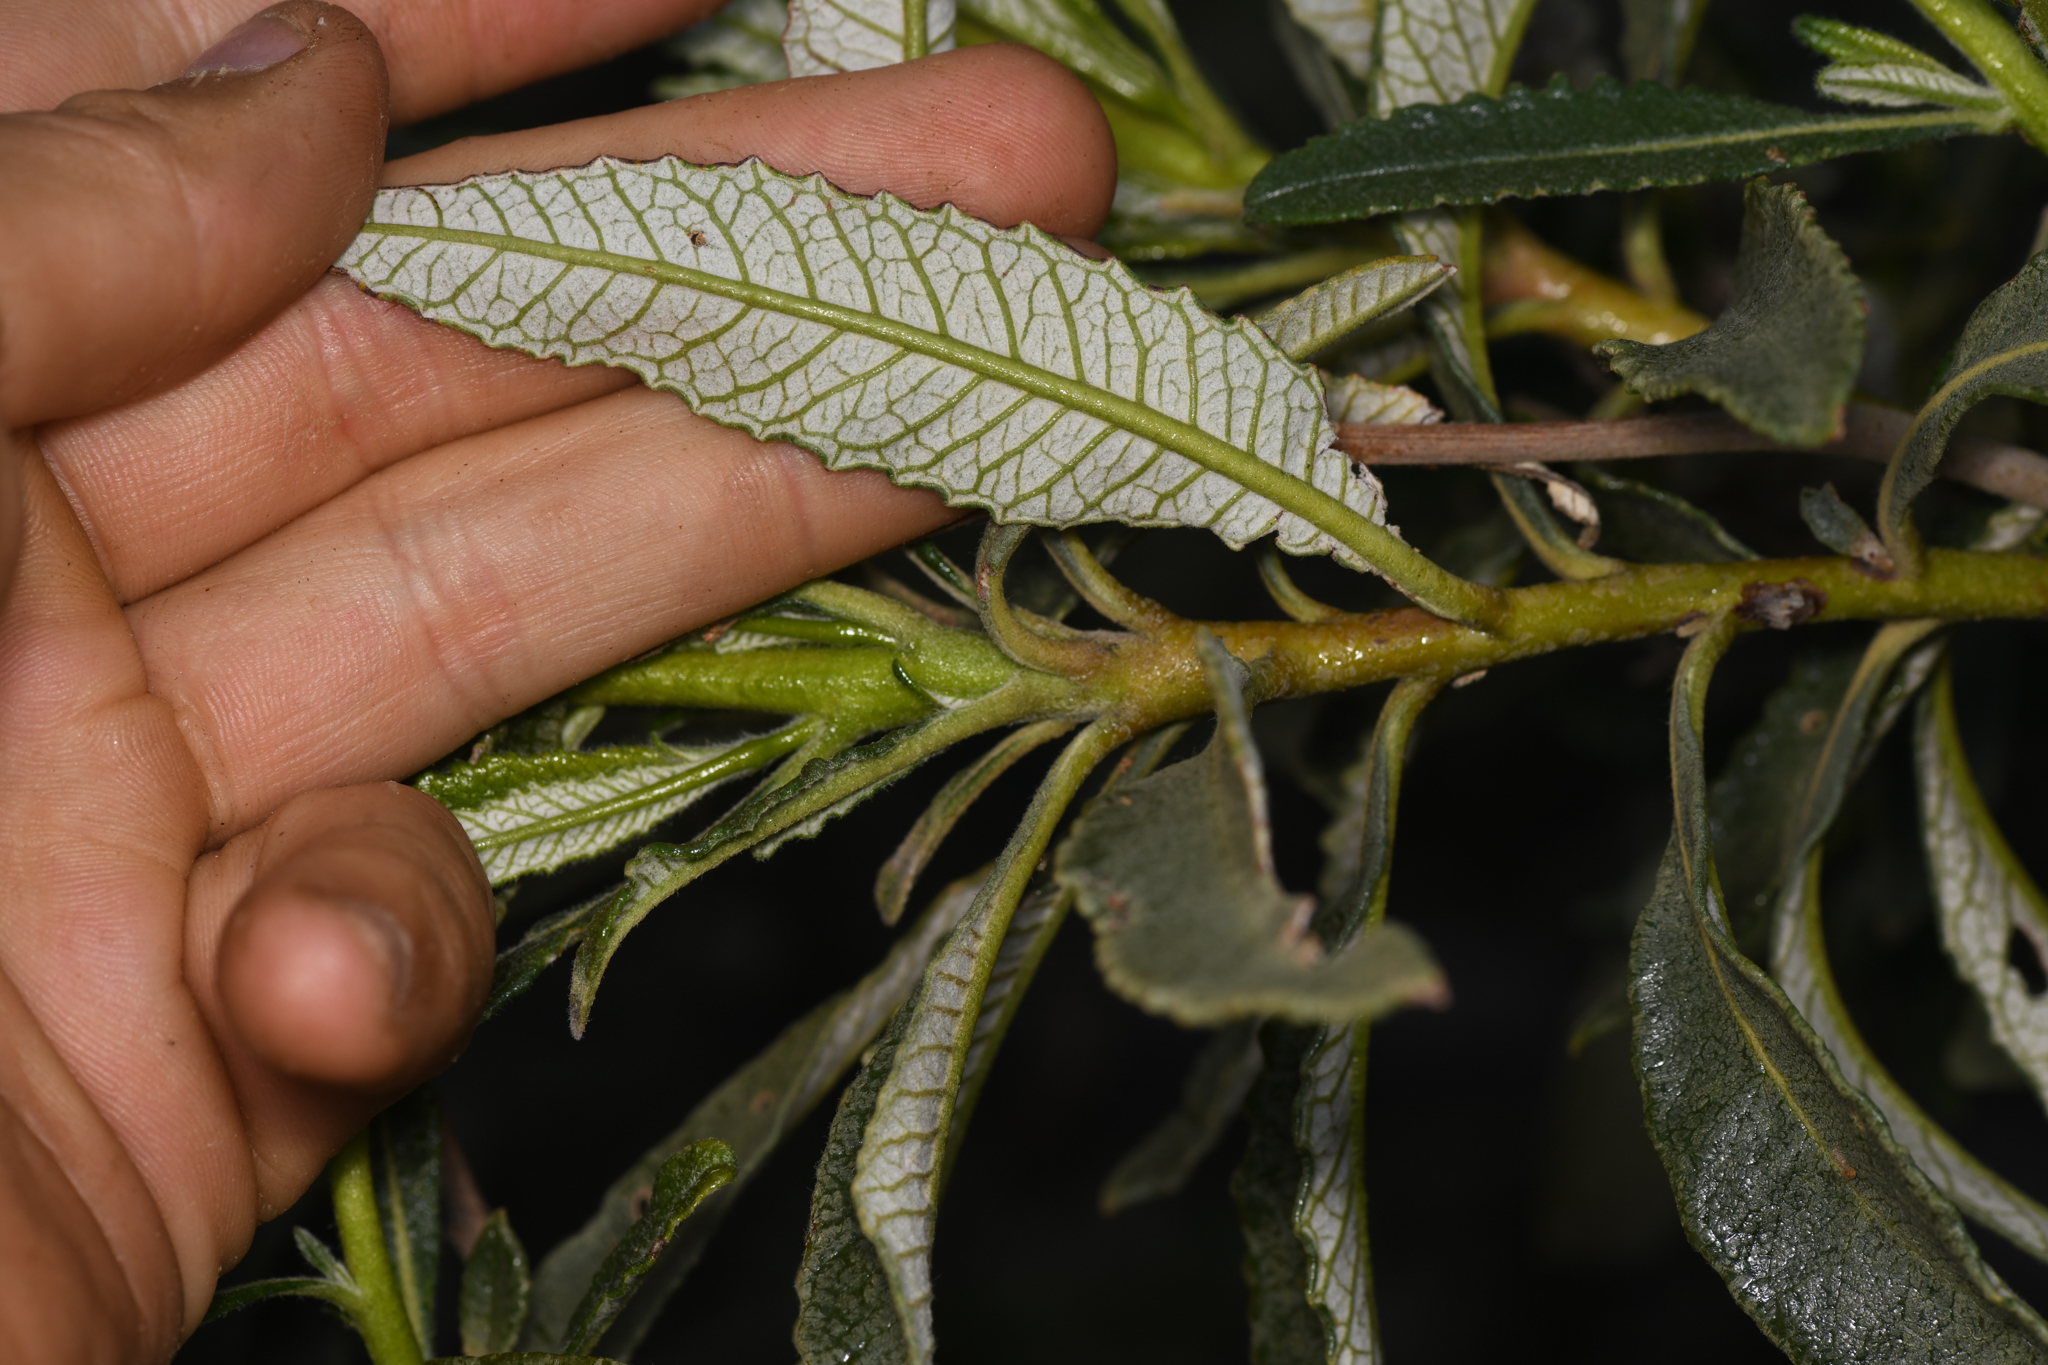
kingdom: Plantae
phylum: Tracheophyta
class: Magnoliopsida
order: Boraginales
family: Namaceae
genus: Eriodictyon
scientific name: Eriodictyon trichocalyx
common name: Hairy yerba-santa
